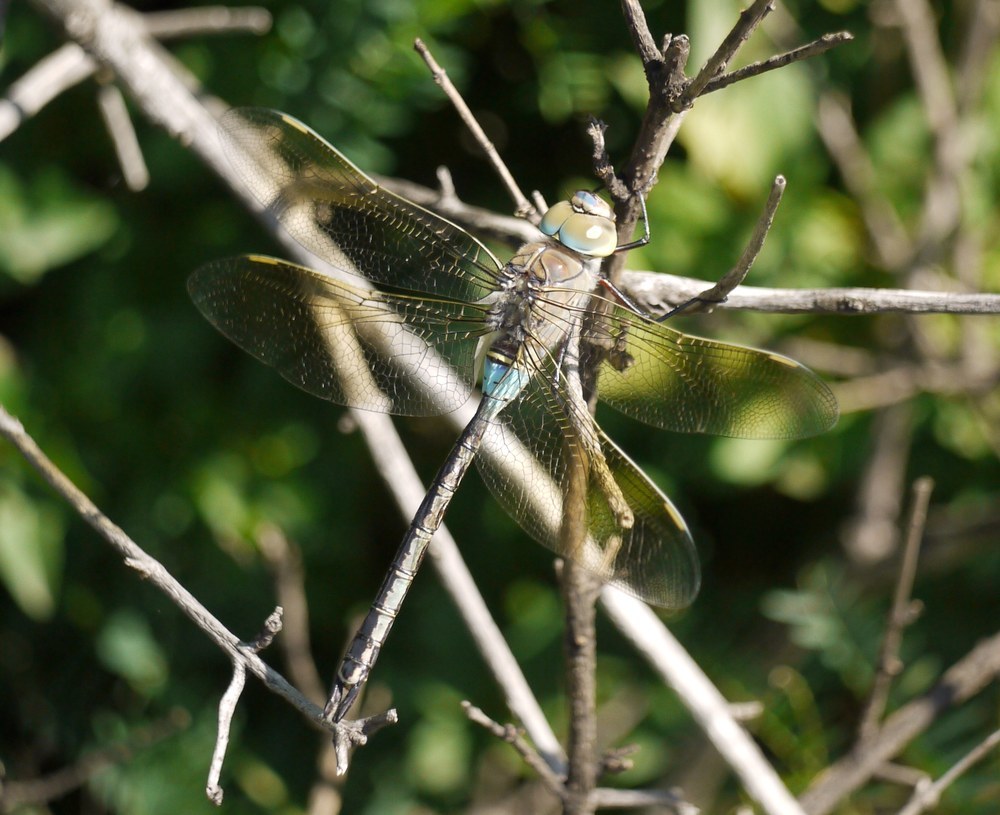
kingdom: Animalia
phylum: Arthropoda
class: Insecta
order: Odonata
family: Aeshnidae
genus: Anax
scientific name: Anax parthenope
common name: Lesser emperor
